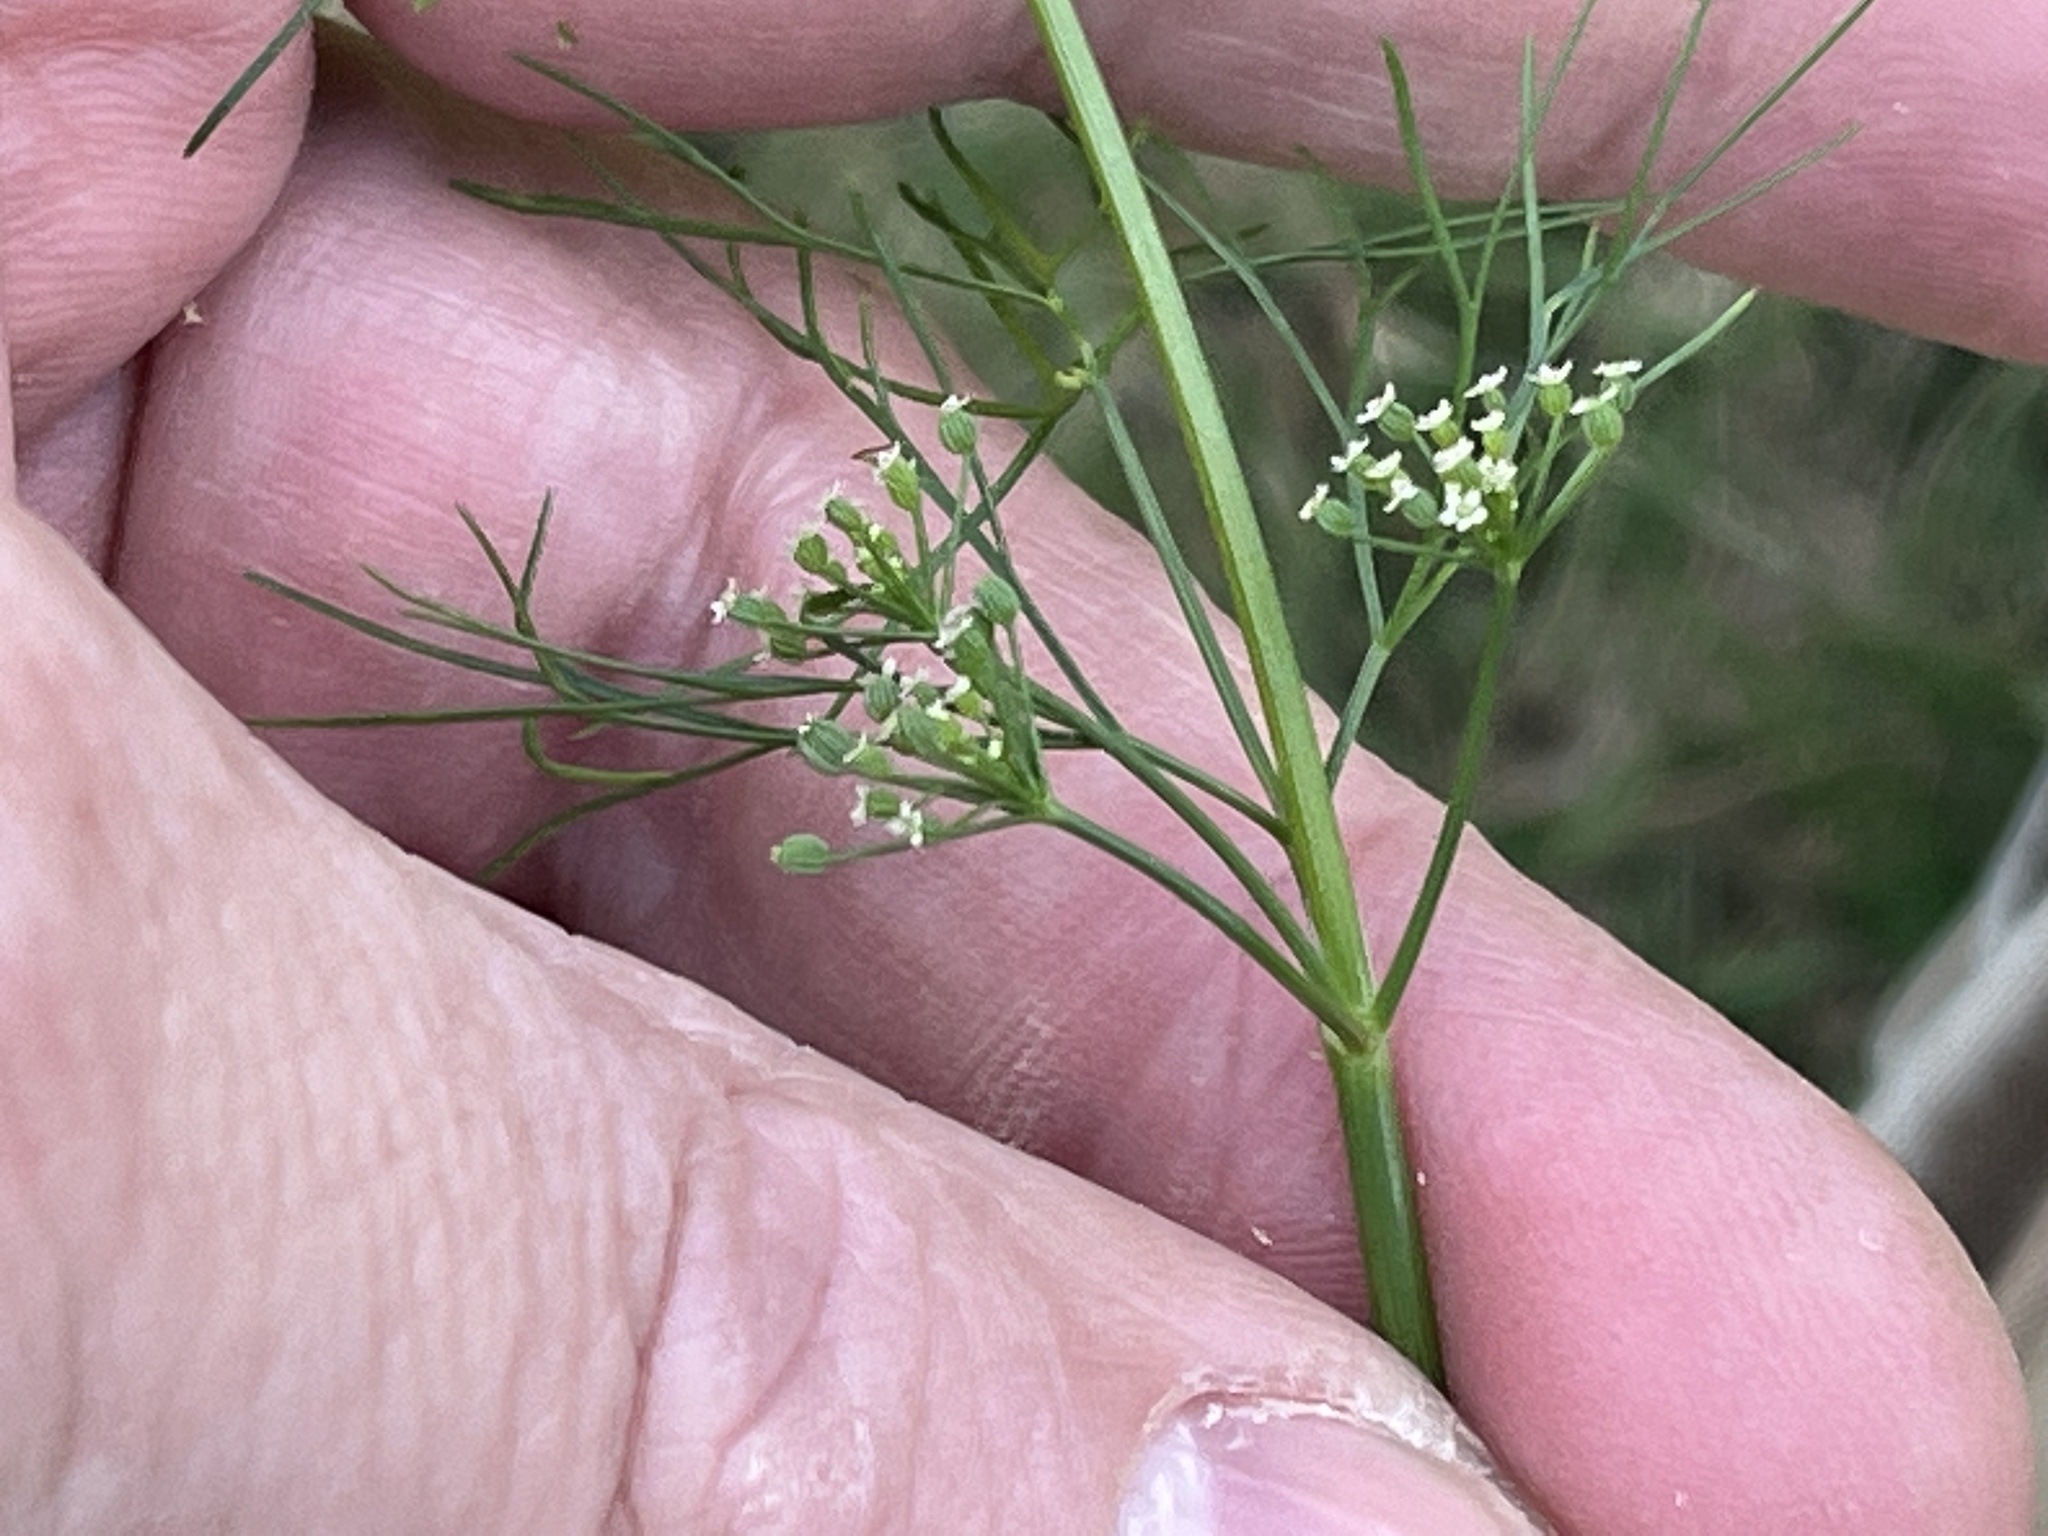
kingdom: Plantae
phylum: Tracheophyta
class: Magnoliopsida
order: Apiales
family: Apiaceae
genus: Cyclospermum
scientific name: Cyclospermum leptophyllum
